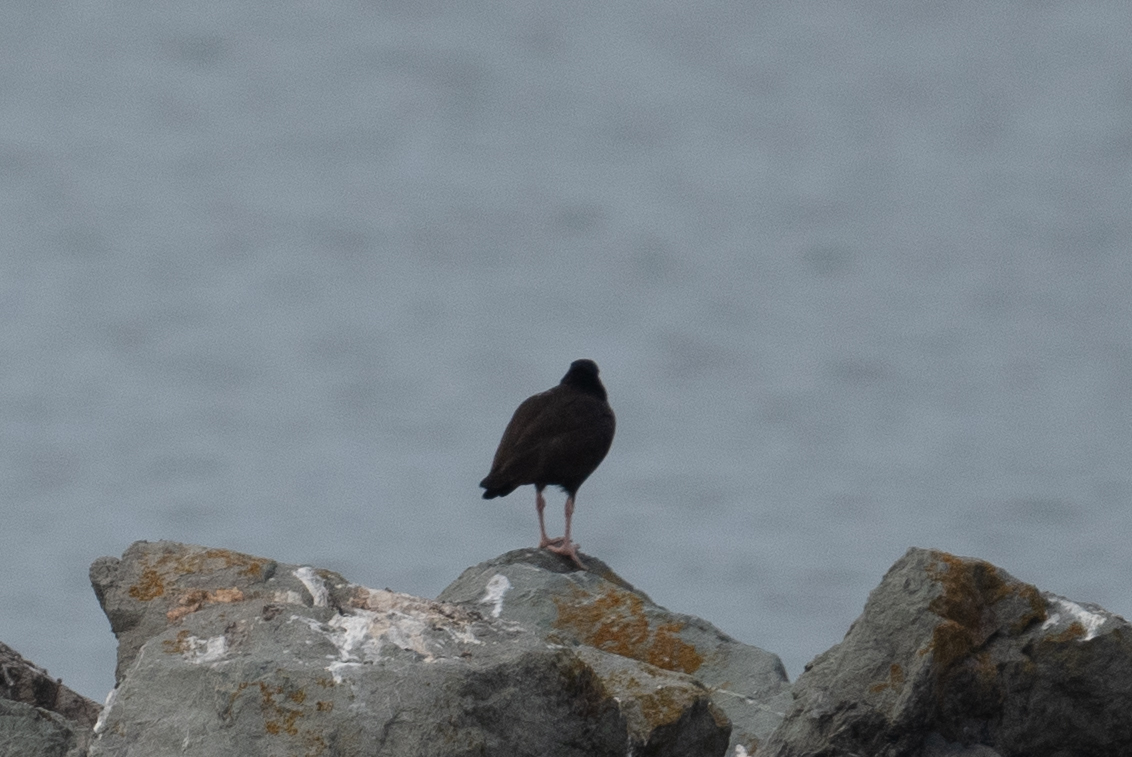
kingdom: Animalia
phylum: Chordata
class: Aves
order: Charadriiformes
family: Haematopodidae
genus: Haematopus
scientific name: Haematopus bachmani
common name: Black oystercatcher
